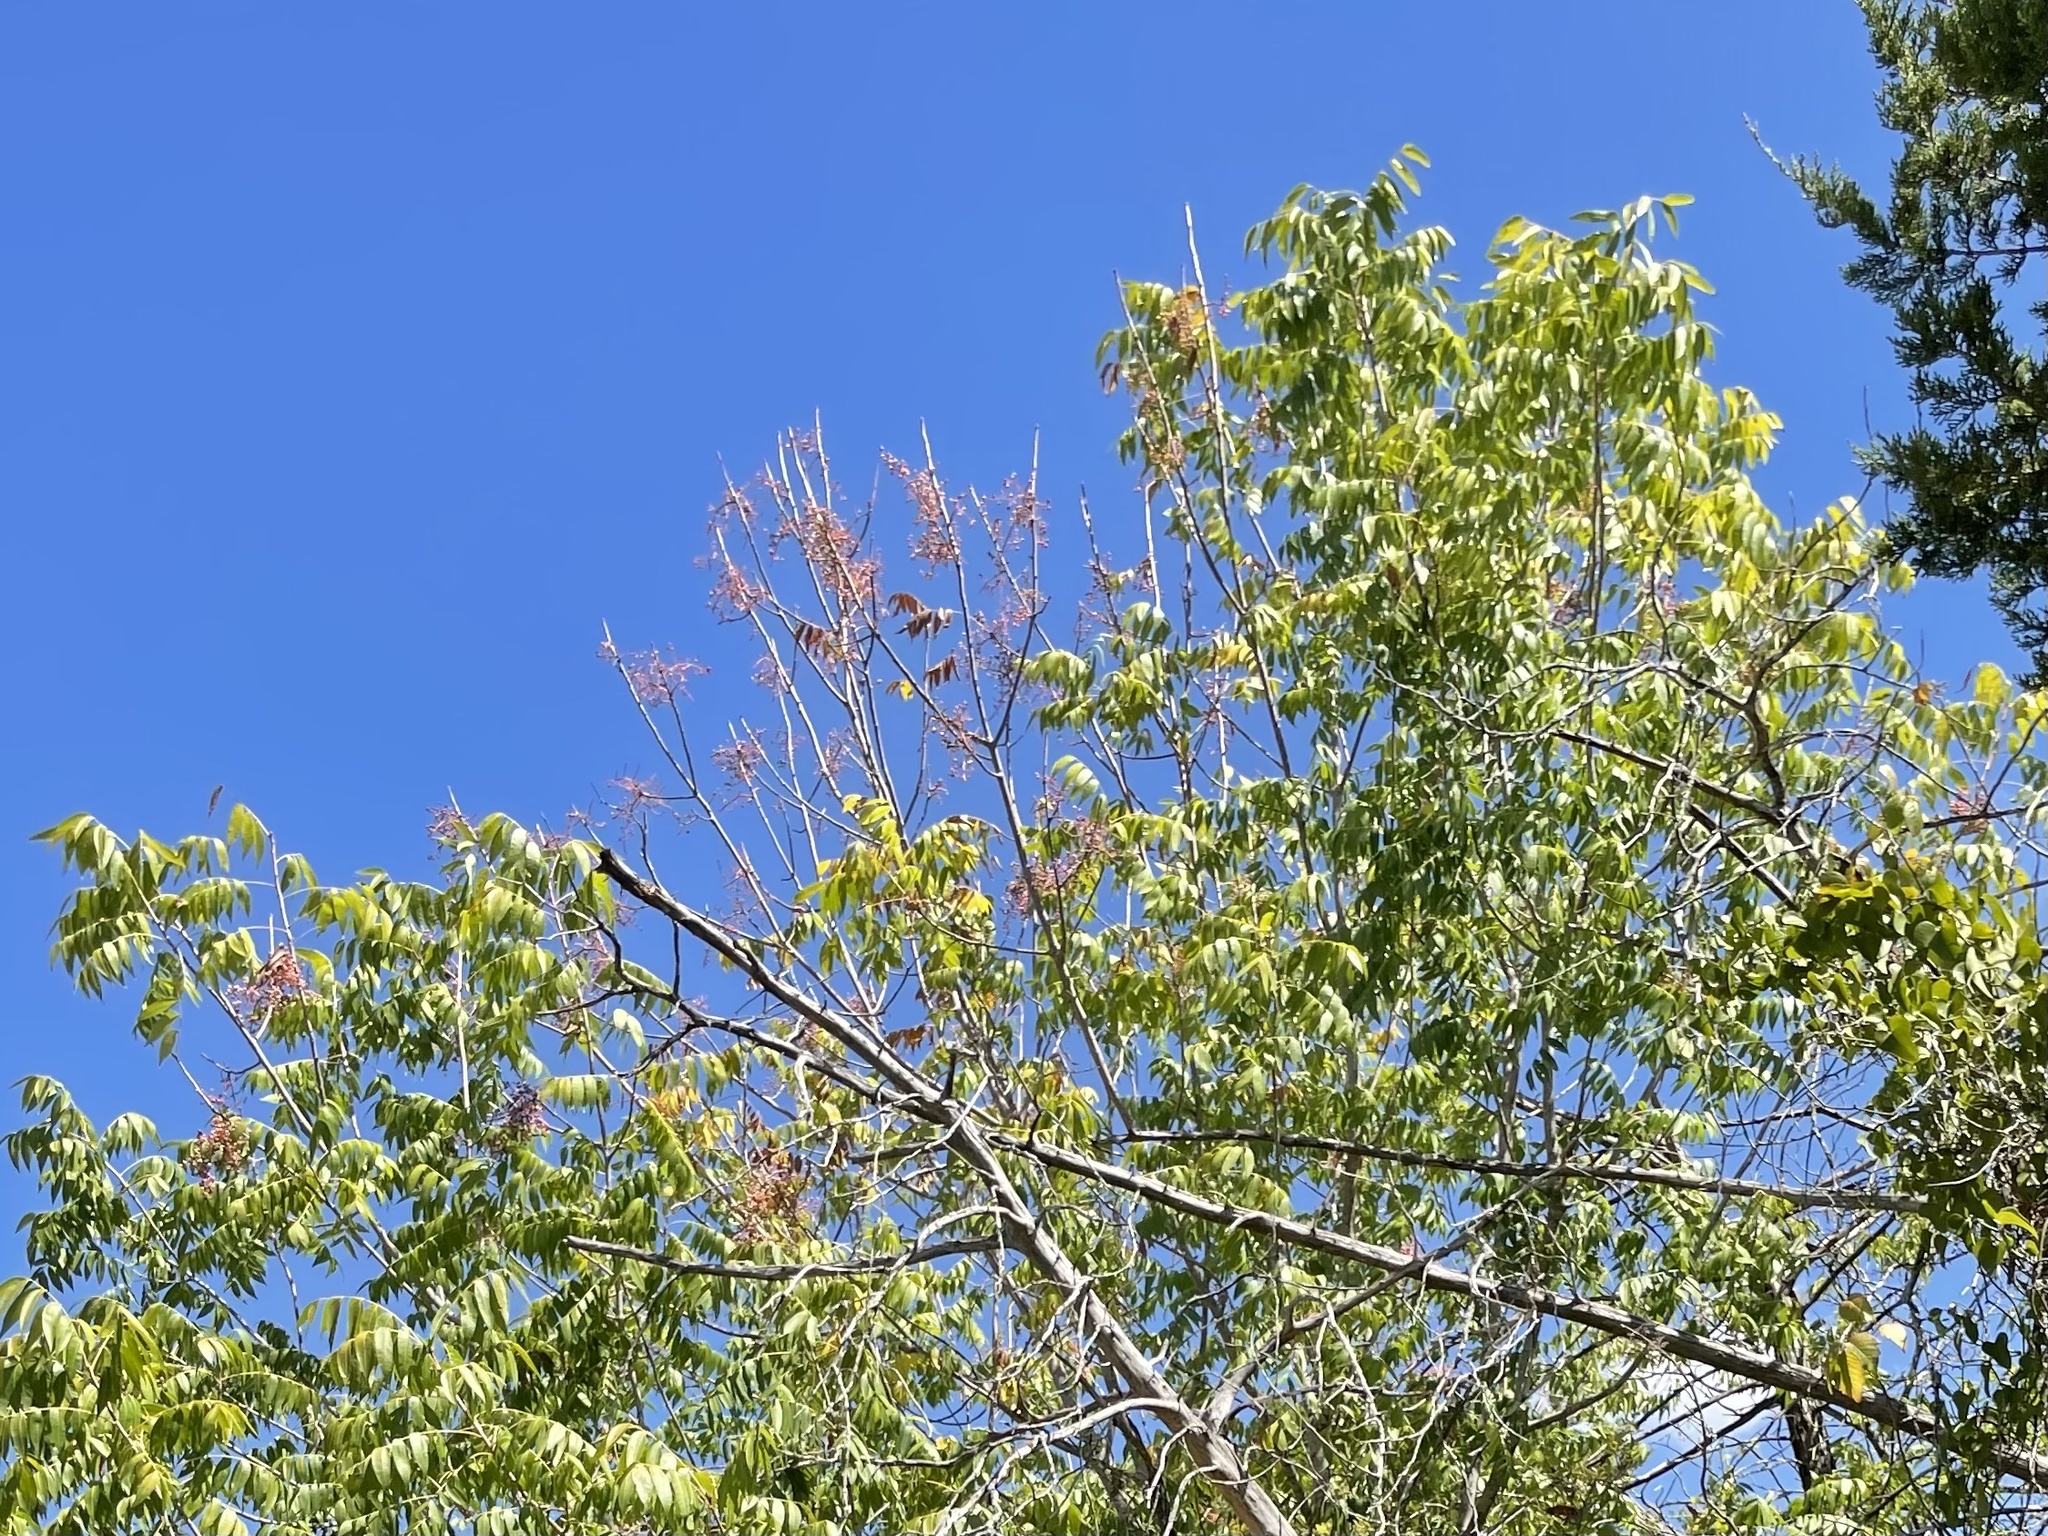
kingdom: Plantae
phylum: Tracheophyta
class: Magnoliopsida
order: Sapindales
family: Anacardiaceae
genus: Pistacia
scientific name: Pistacia chinensis
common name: Chinese pistache
